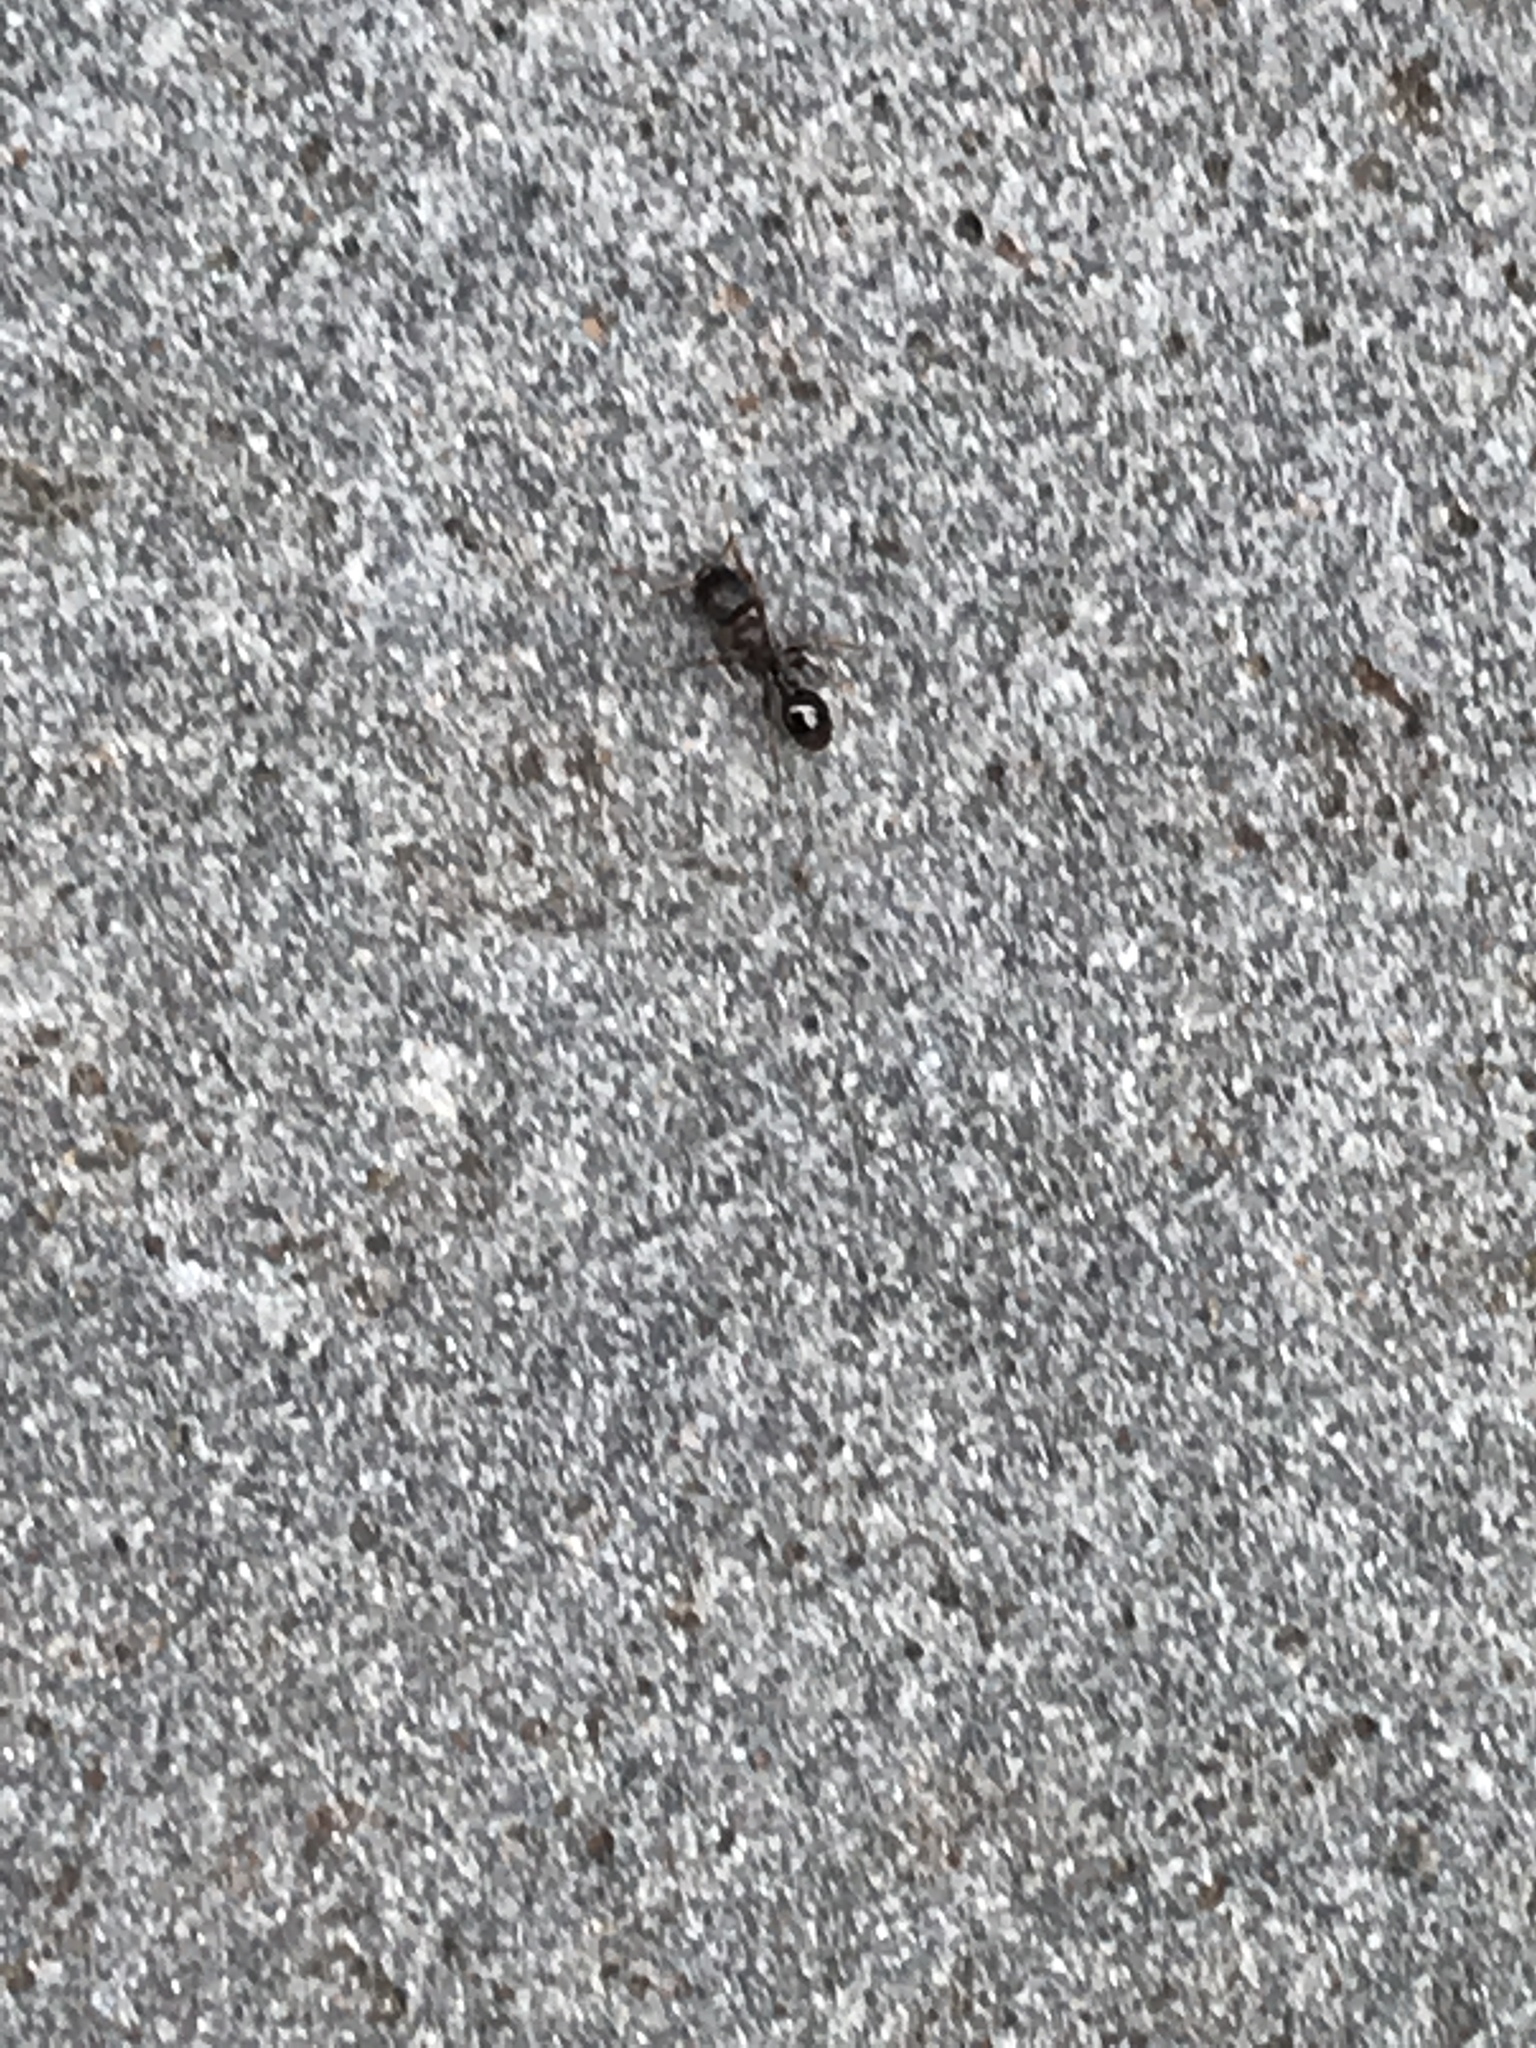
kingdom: Animalia
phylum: Arthropoda
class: Insecta
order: Hymenoptera
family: Formicidae
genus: Tetramorium
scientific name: Tetramorium immigrans
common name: Pavement ant
